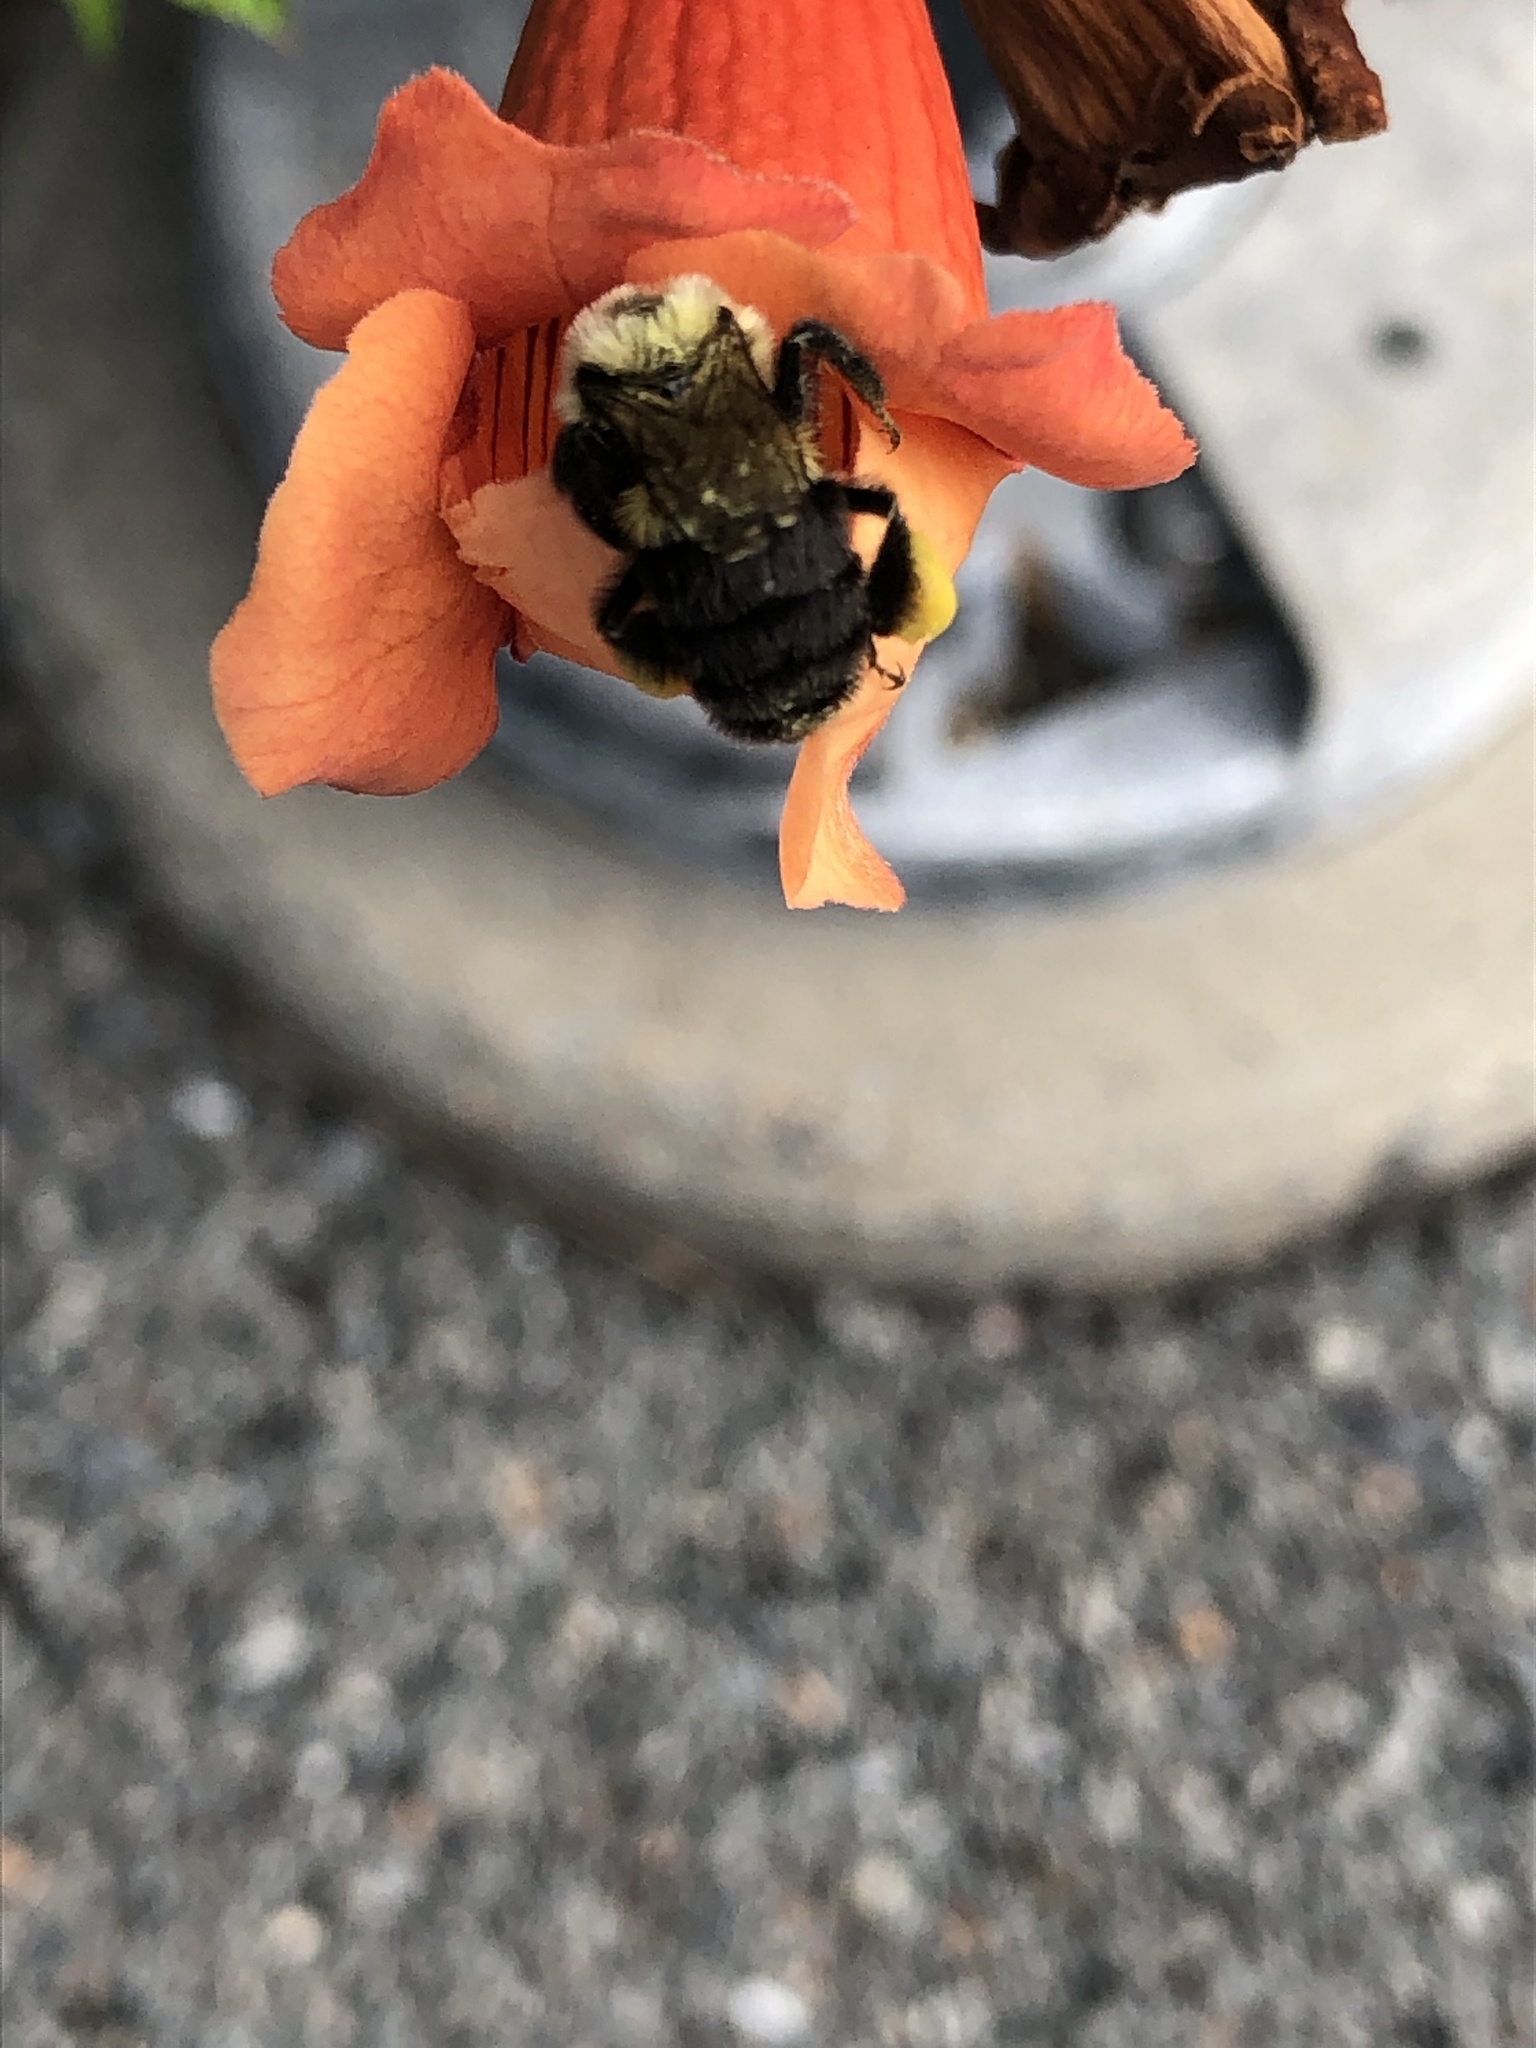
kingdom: Animalia
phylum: Arthropoda
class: Insecta
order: Hymenoptera
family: Apidae
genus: Bombus
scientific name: Bombus impatiens
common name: Common eastern bumble bee
